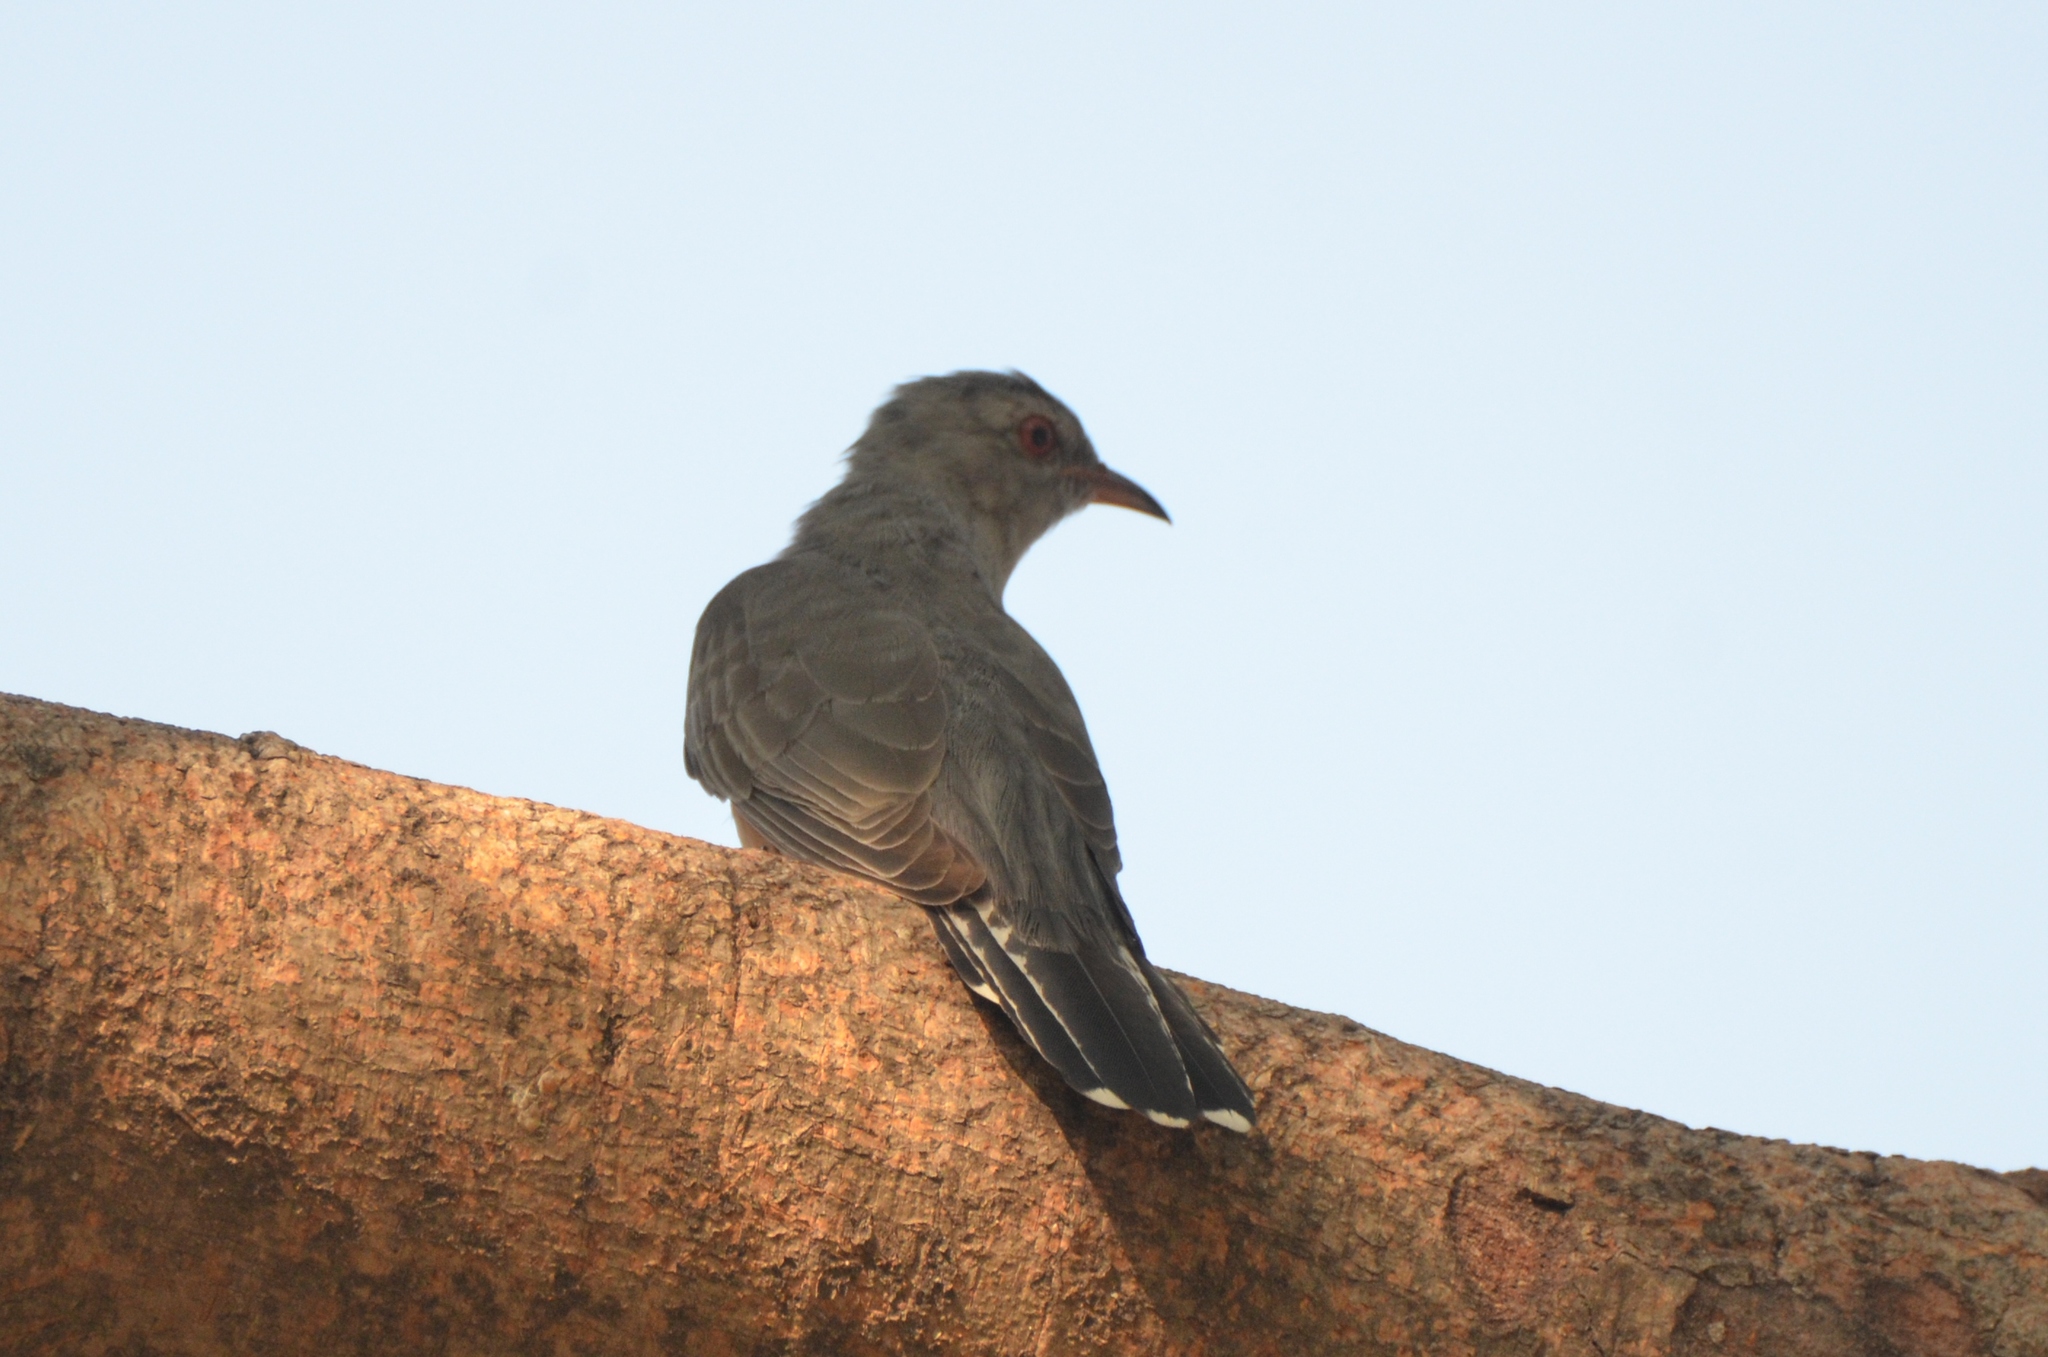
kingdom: Animalia
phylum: Chordata
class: Aves
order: Cuculiformes
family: Cuculidae
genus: Cacomantis
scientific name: Cacomantis merulinus
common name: Plaintive cuckoo
